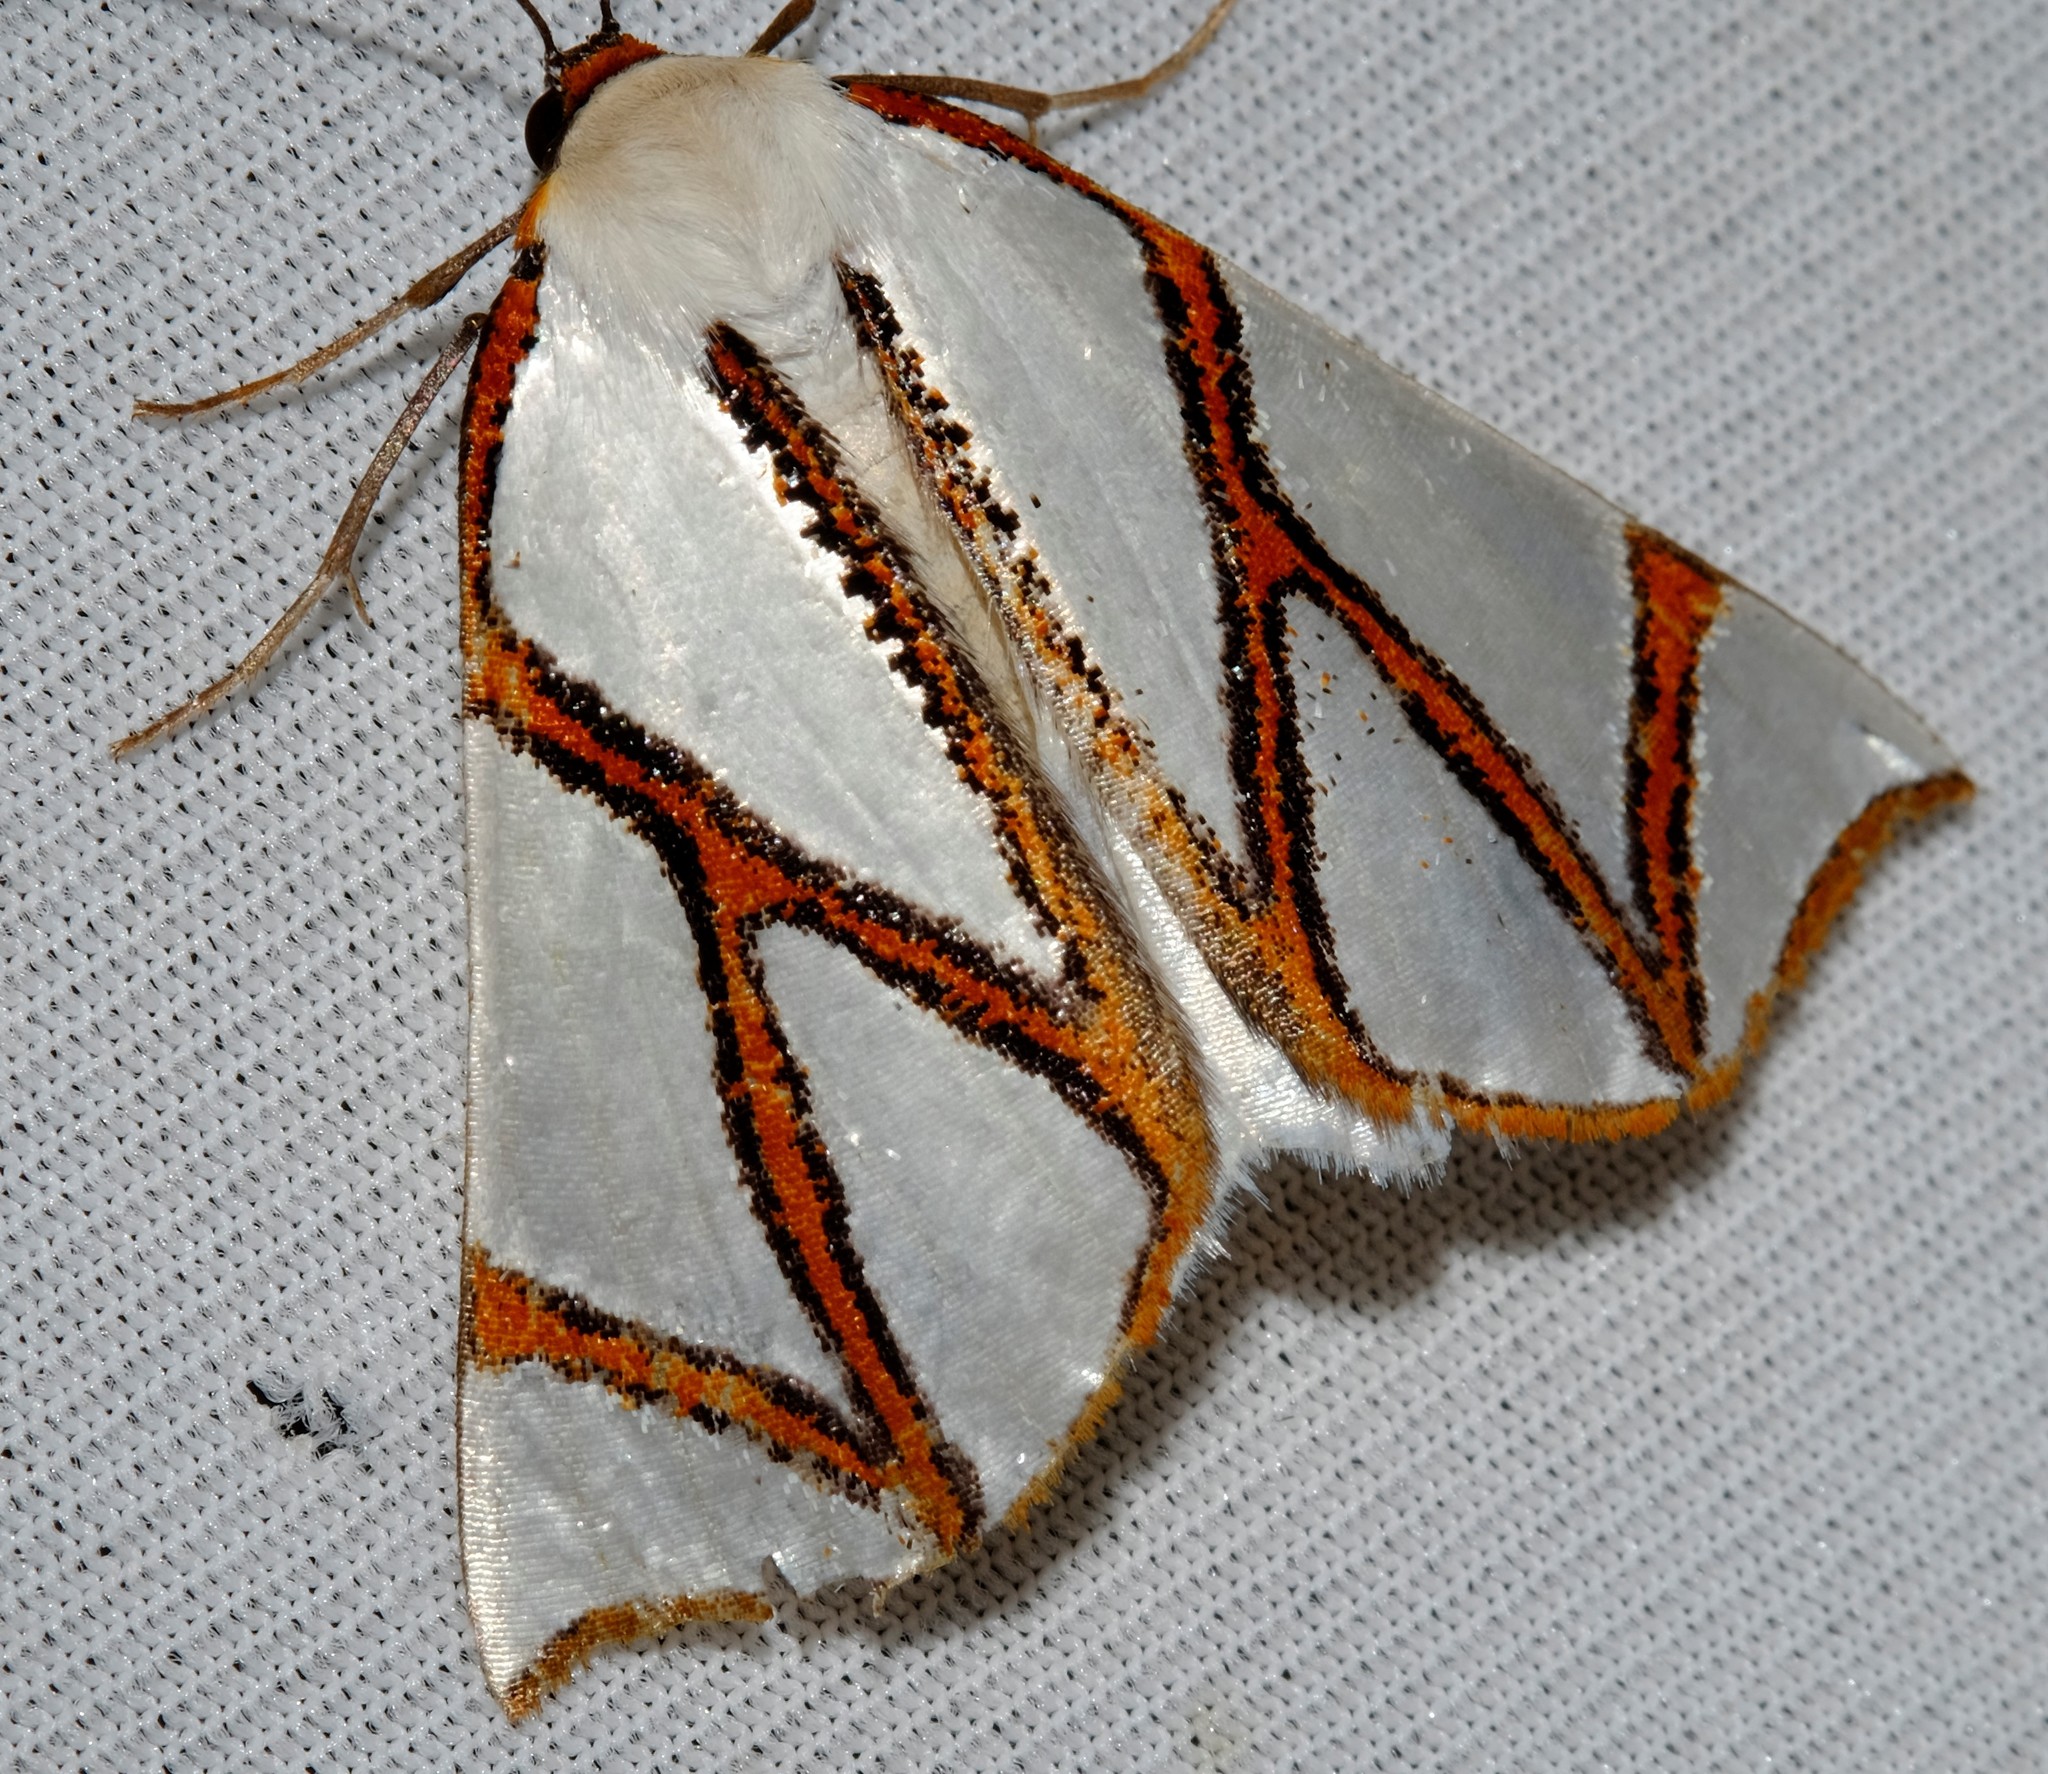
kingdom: Animalia
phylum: Arthropoda
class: Insecta
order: Lepidoptera
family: Geometridae
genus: Thalaina
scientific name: Thalaina clara
